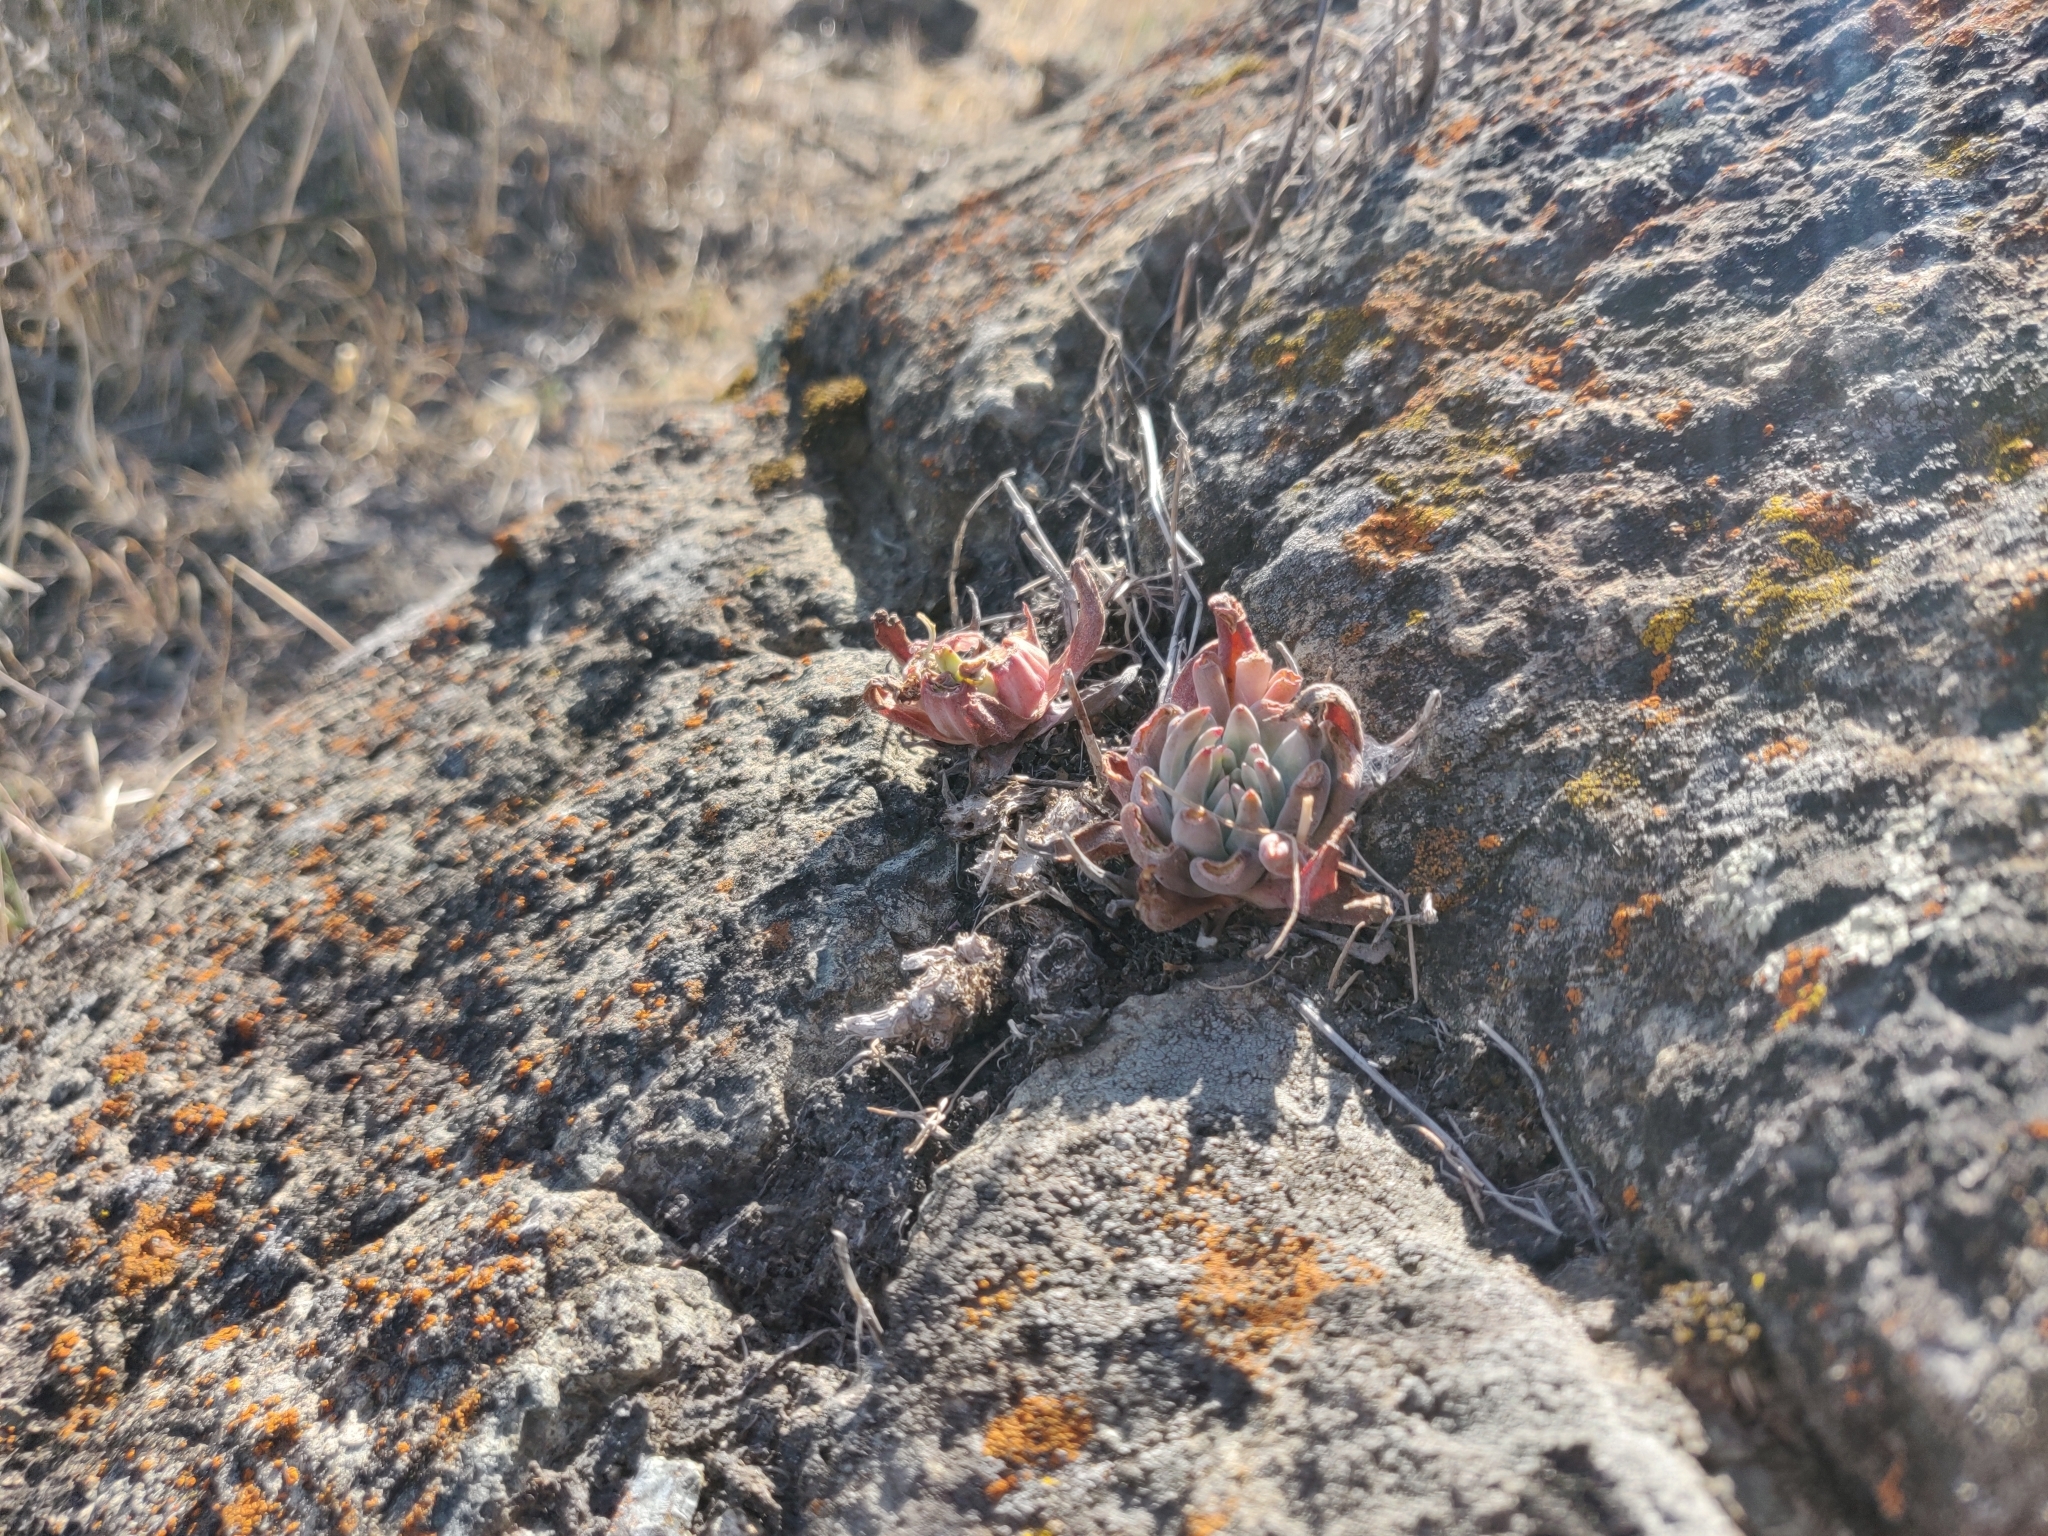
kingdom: Plantae
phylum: Tracheophyta
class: Magnoliopsida
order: Saxifragales
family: Crassulaceae
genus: Dudleya
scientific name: Dudleya abramsii
